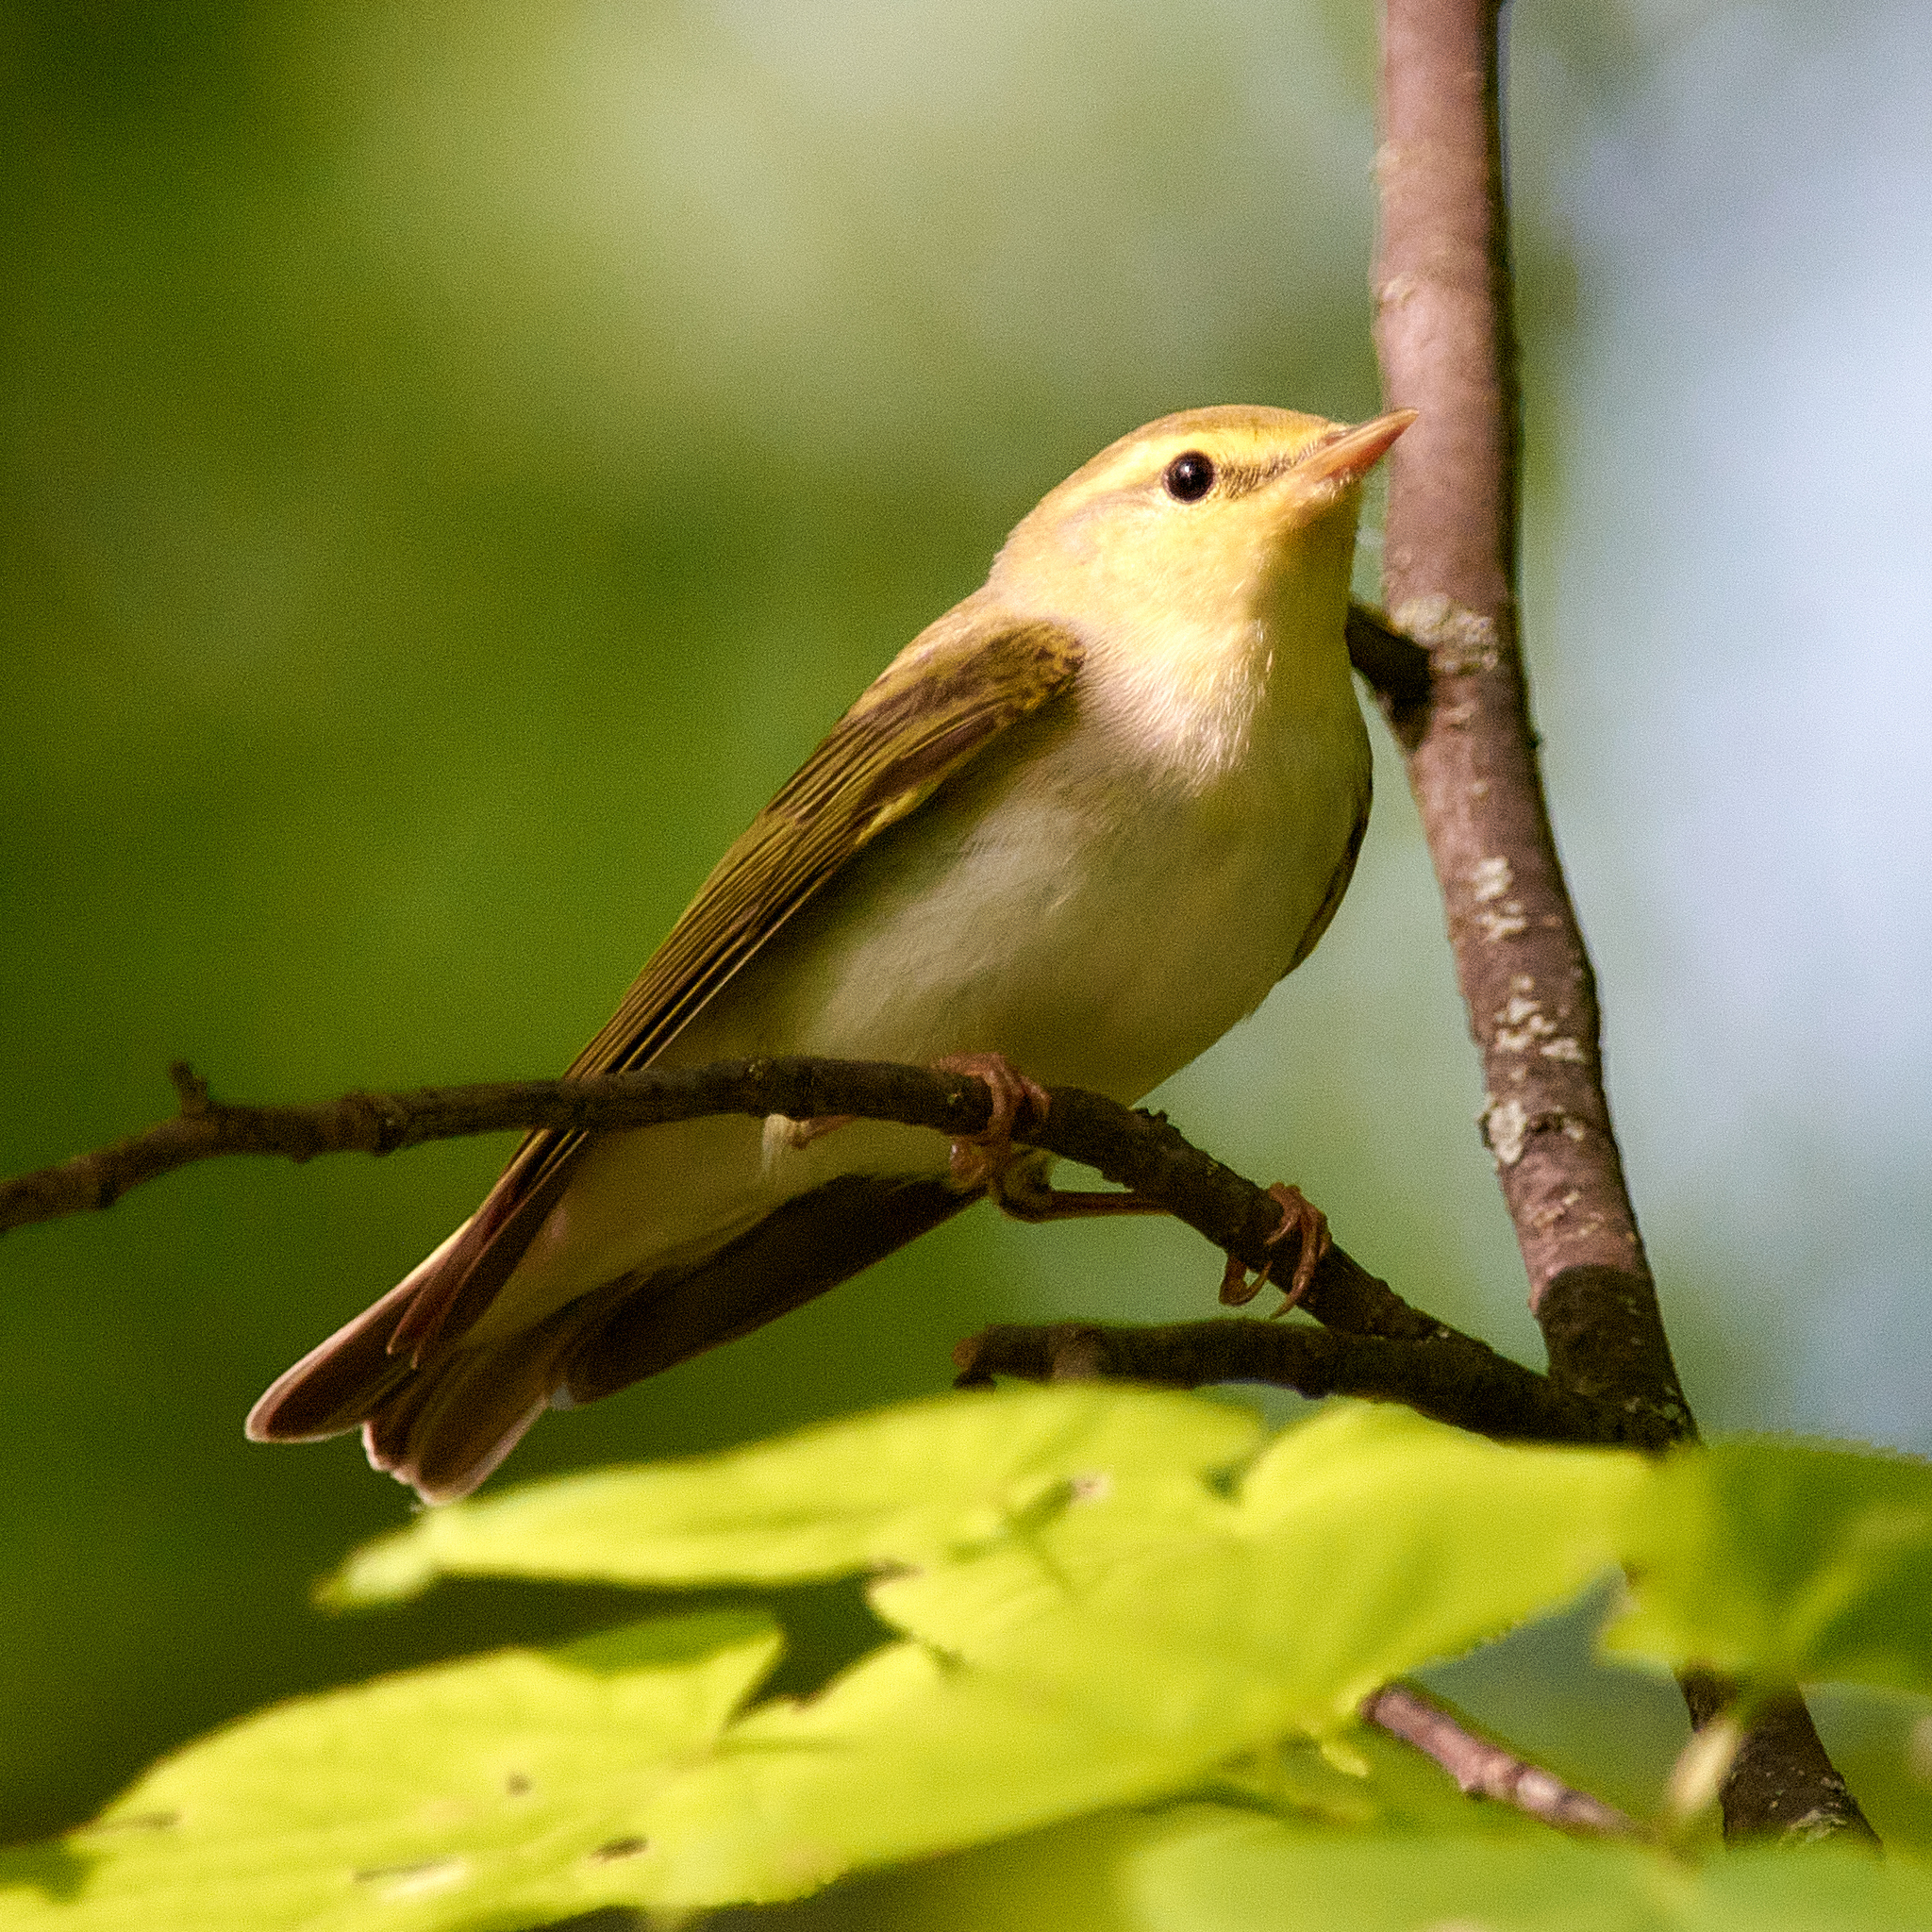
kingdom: Animalia
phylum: Chordata
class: Aves
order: Passeriformes
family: Phylloscopidae
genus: Phylloscopus
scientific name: Phylloscopus sibillatrix
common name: Wood warbler
